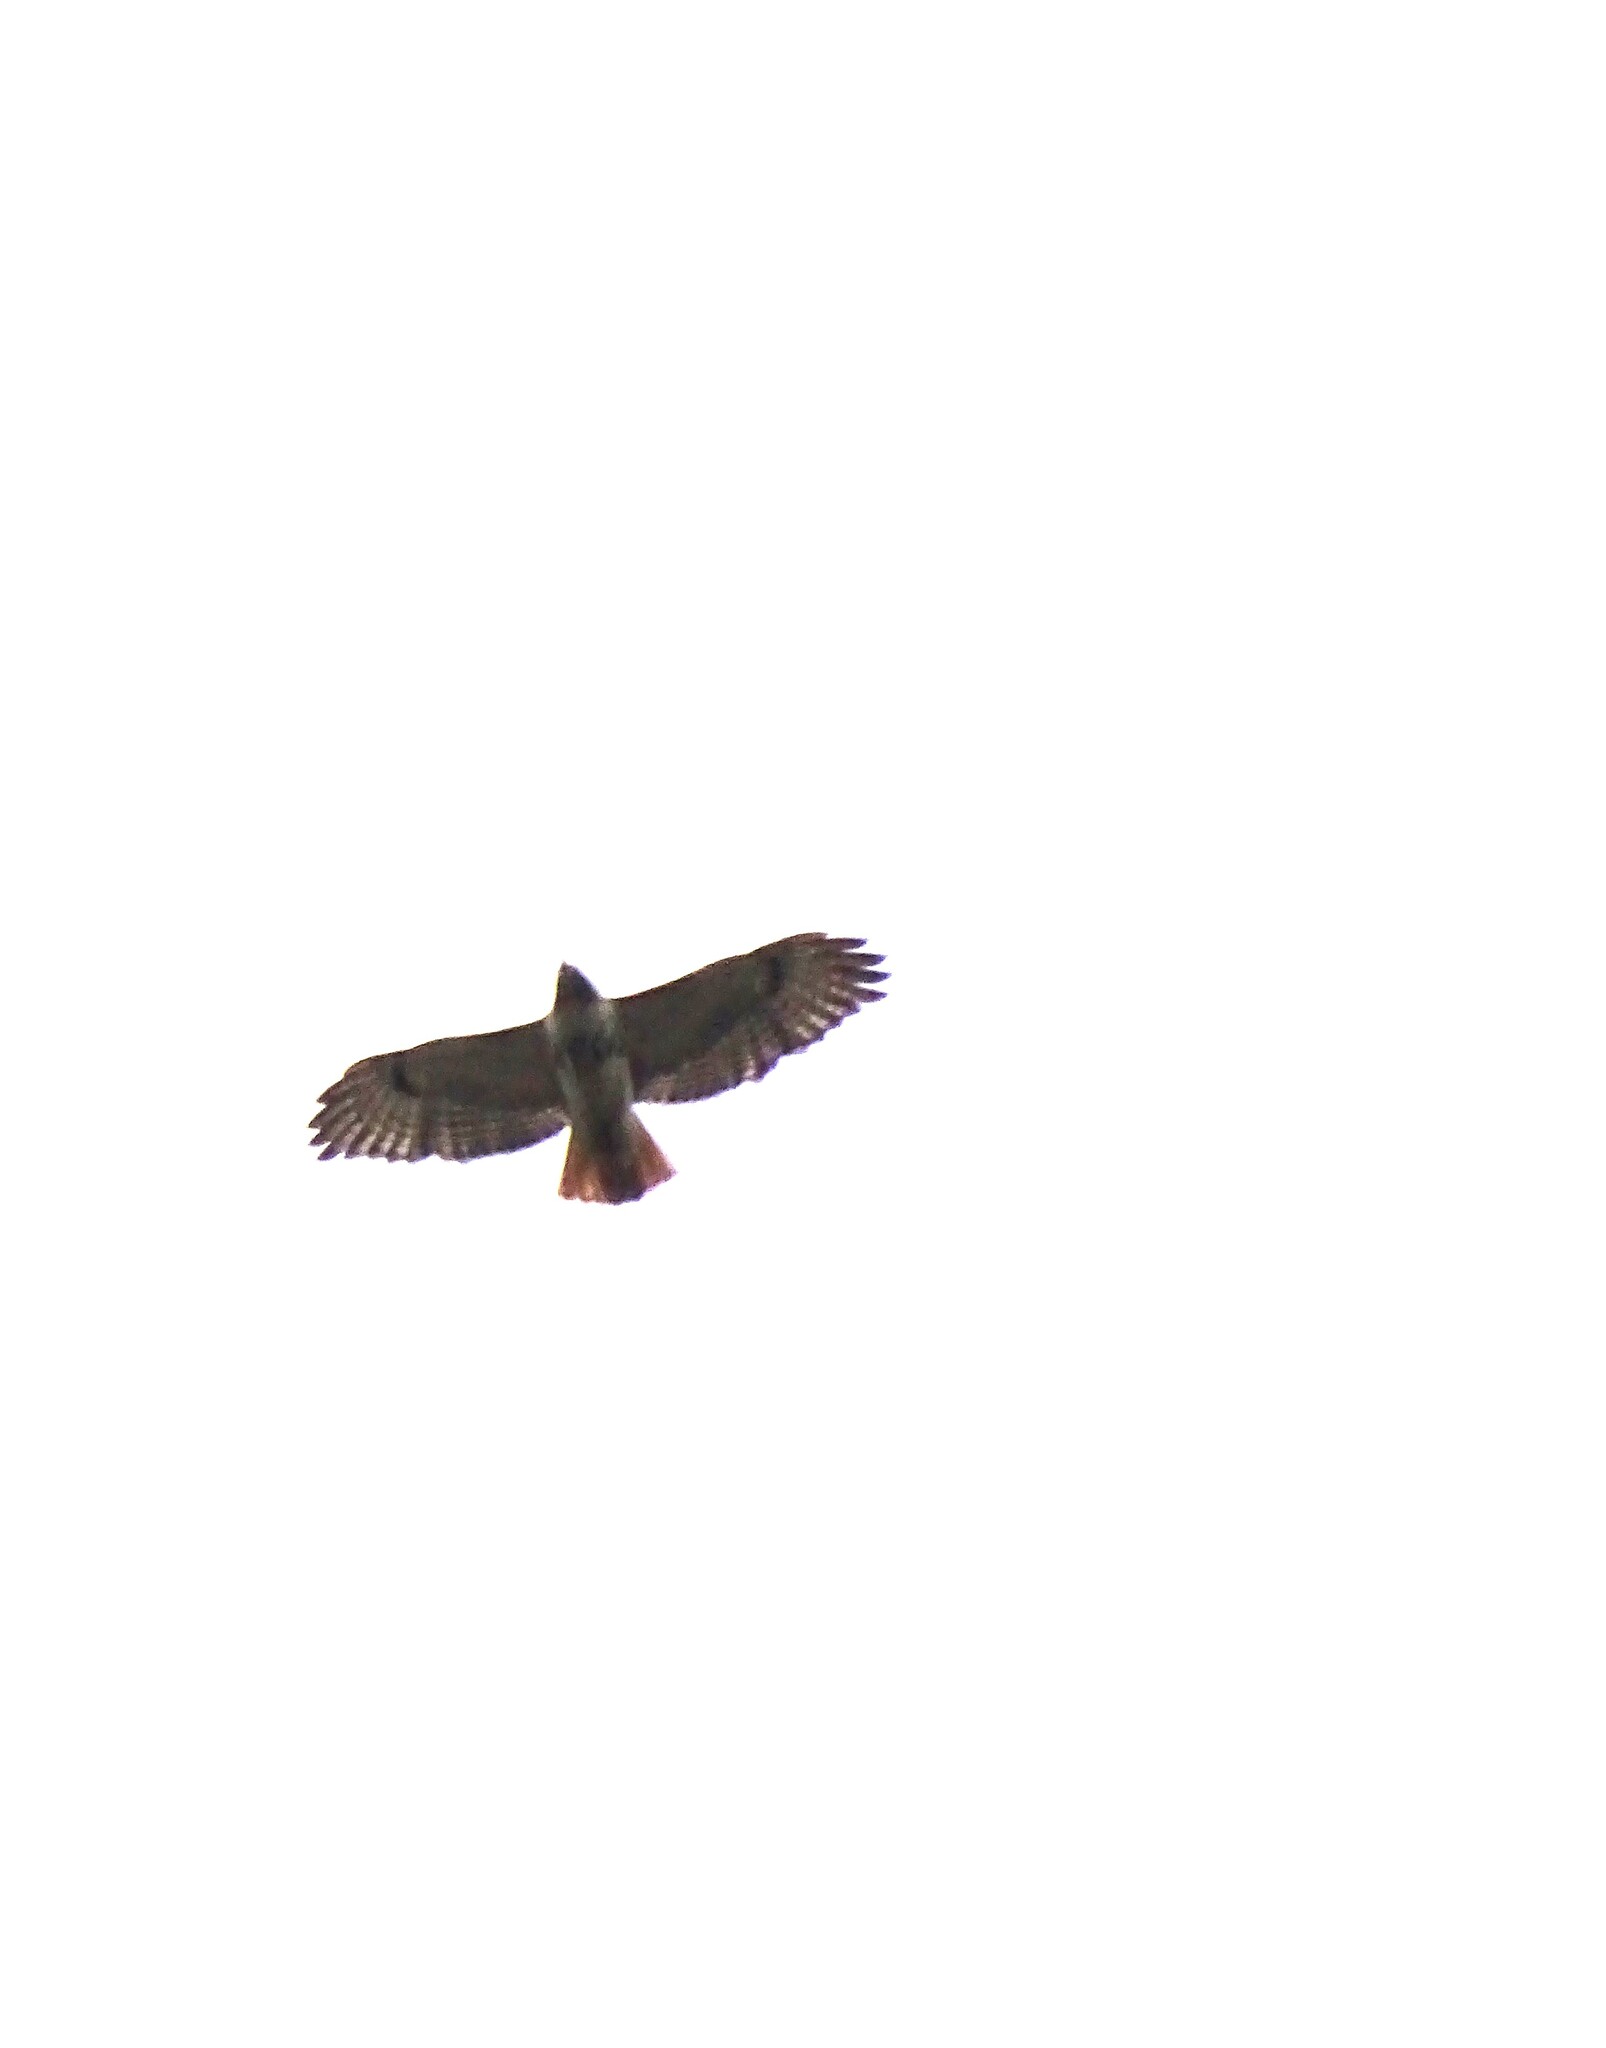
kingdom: Animalia
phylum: Chordata
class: Aves
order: Accipitriformes
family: Accipitridae
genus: Buteo
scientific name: Buteo jamaicensis
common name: Red-tailed hawk
